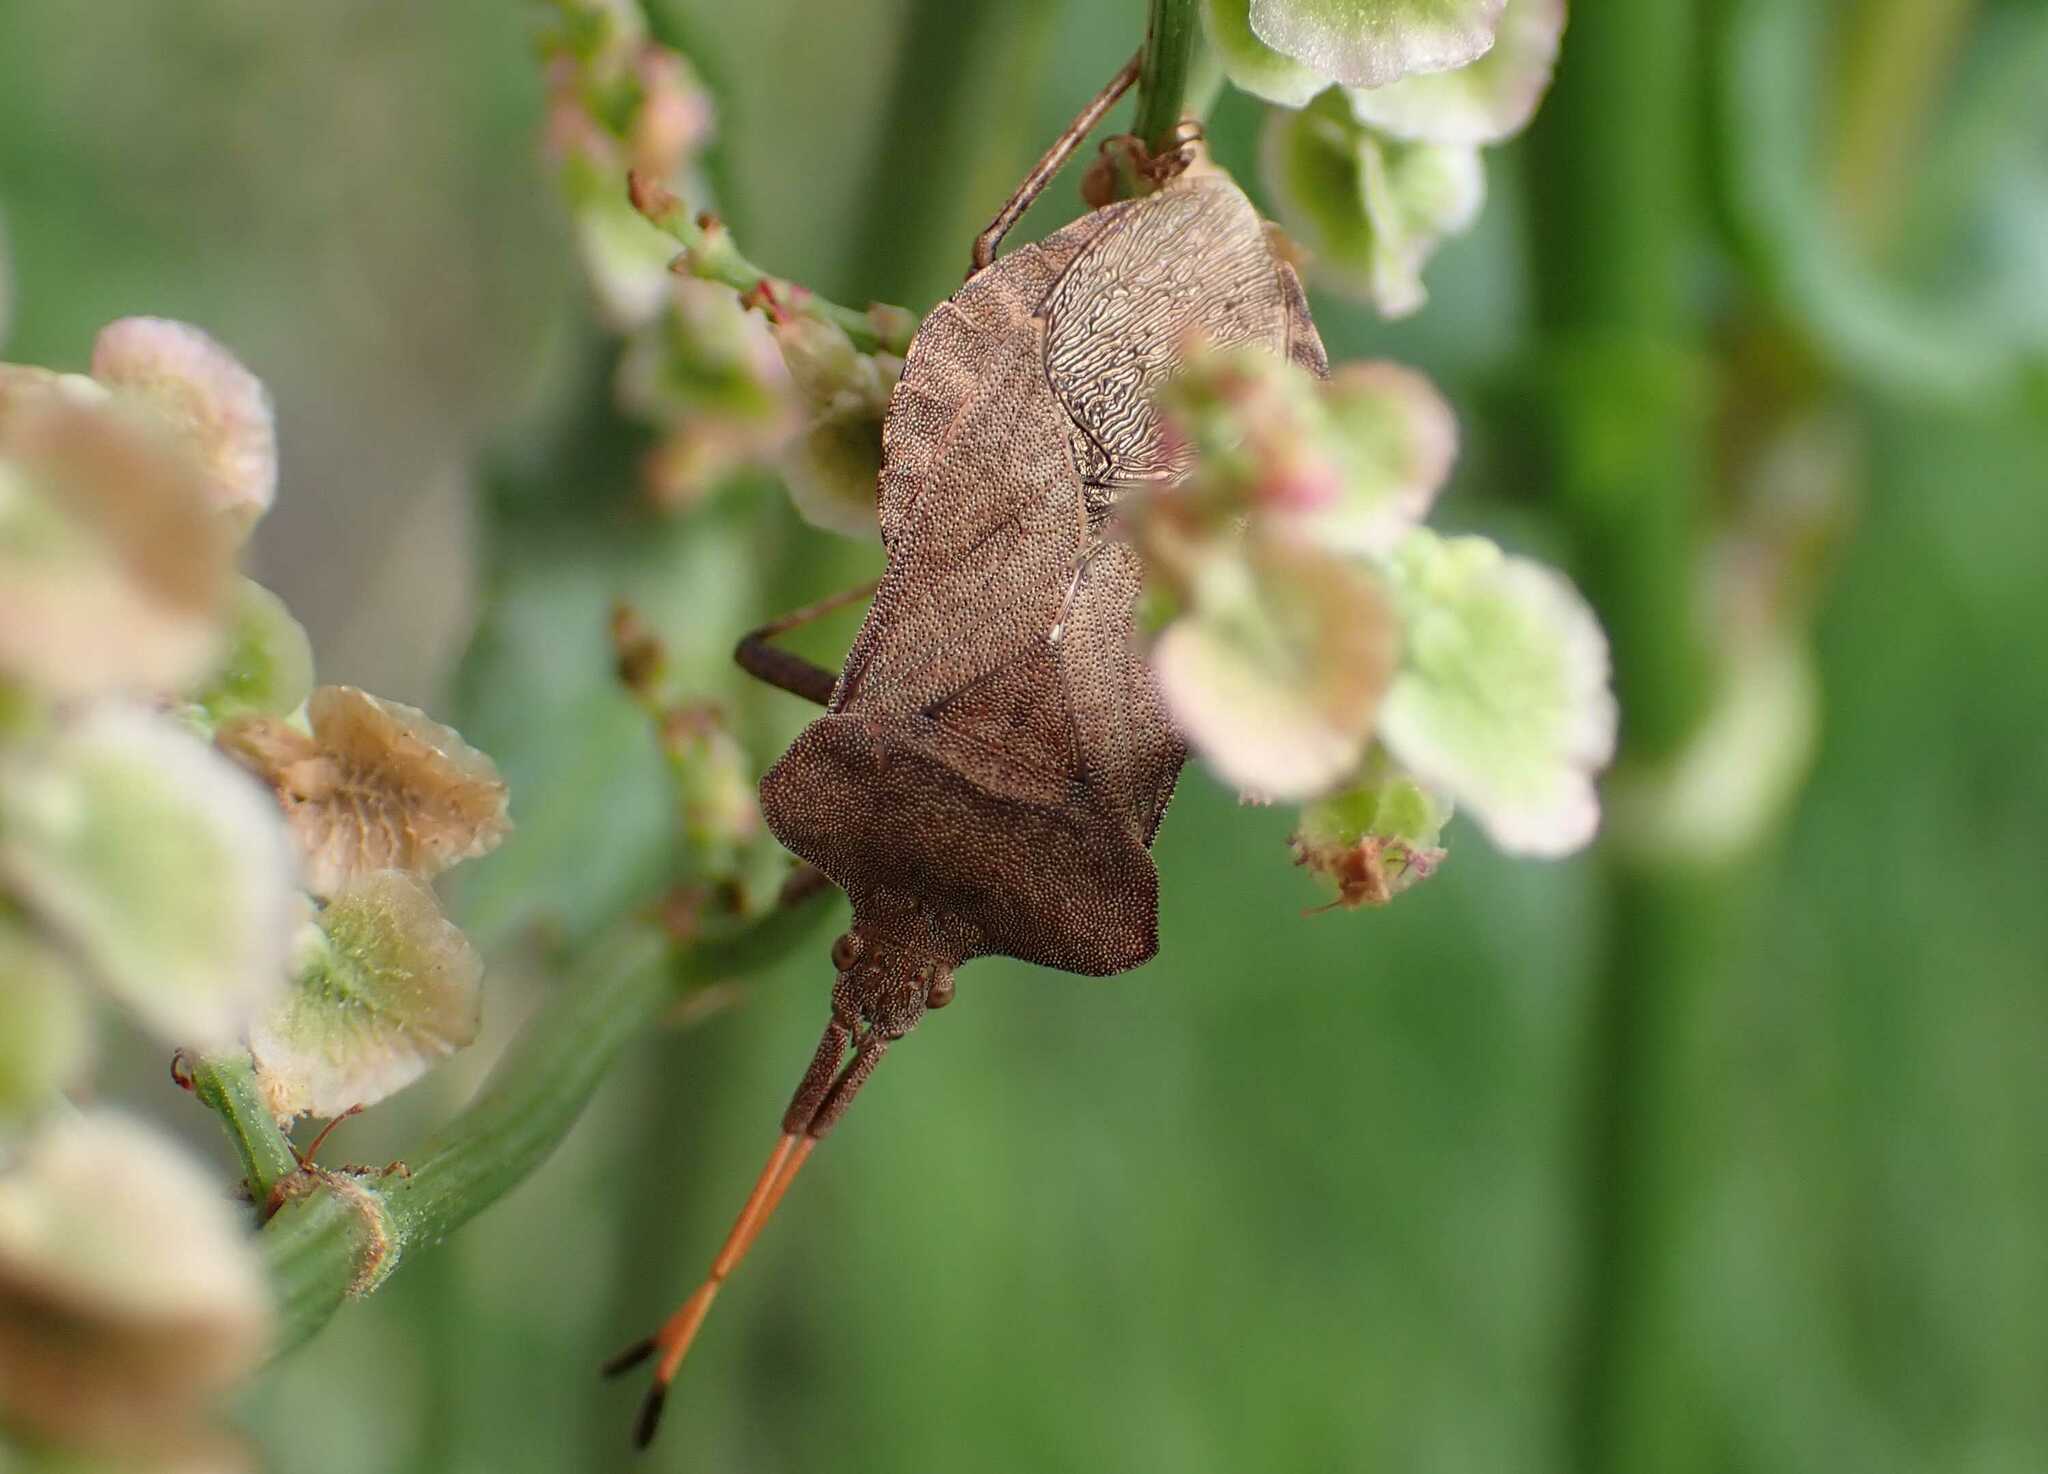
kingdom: Animalia
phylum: Arthropoda
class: Insecta
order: Hemiptera
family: Coreidae
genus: Coreus
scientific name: Coreus marginatus
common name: Dock bug
